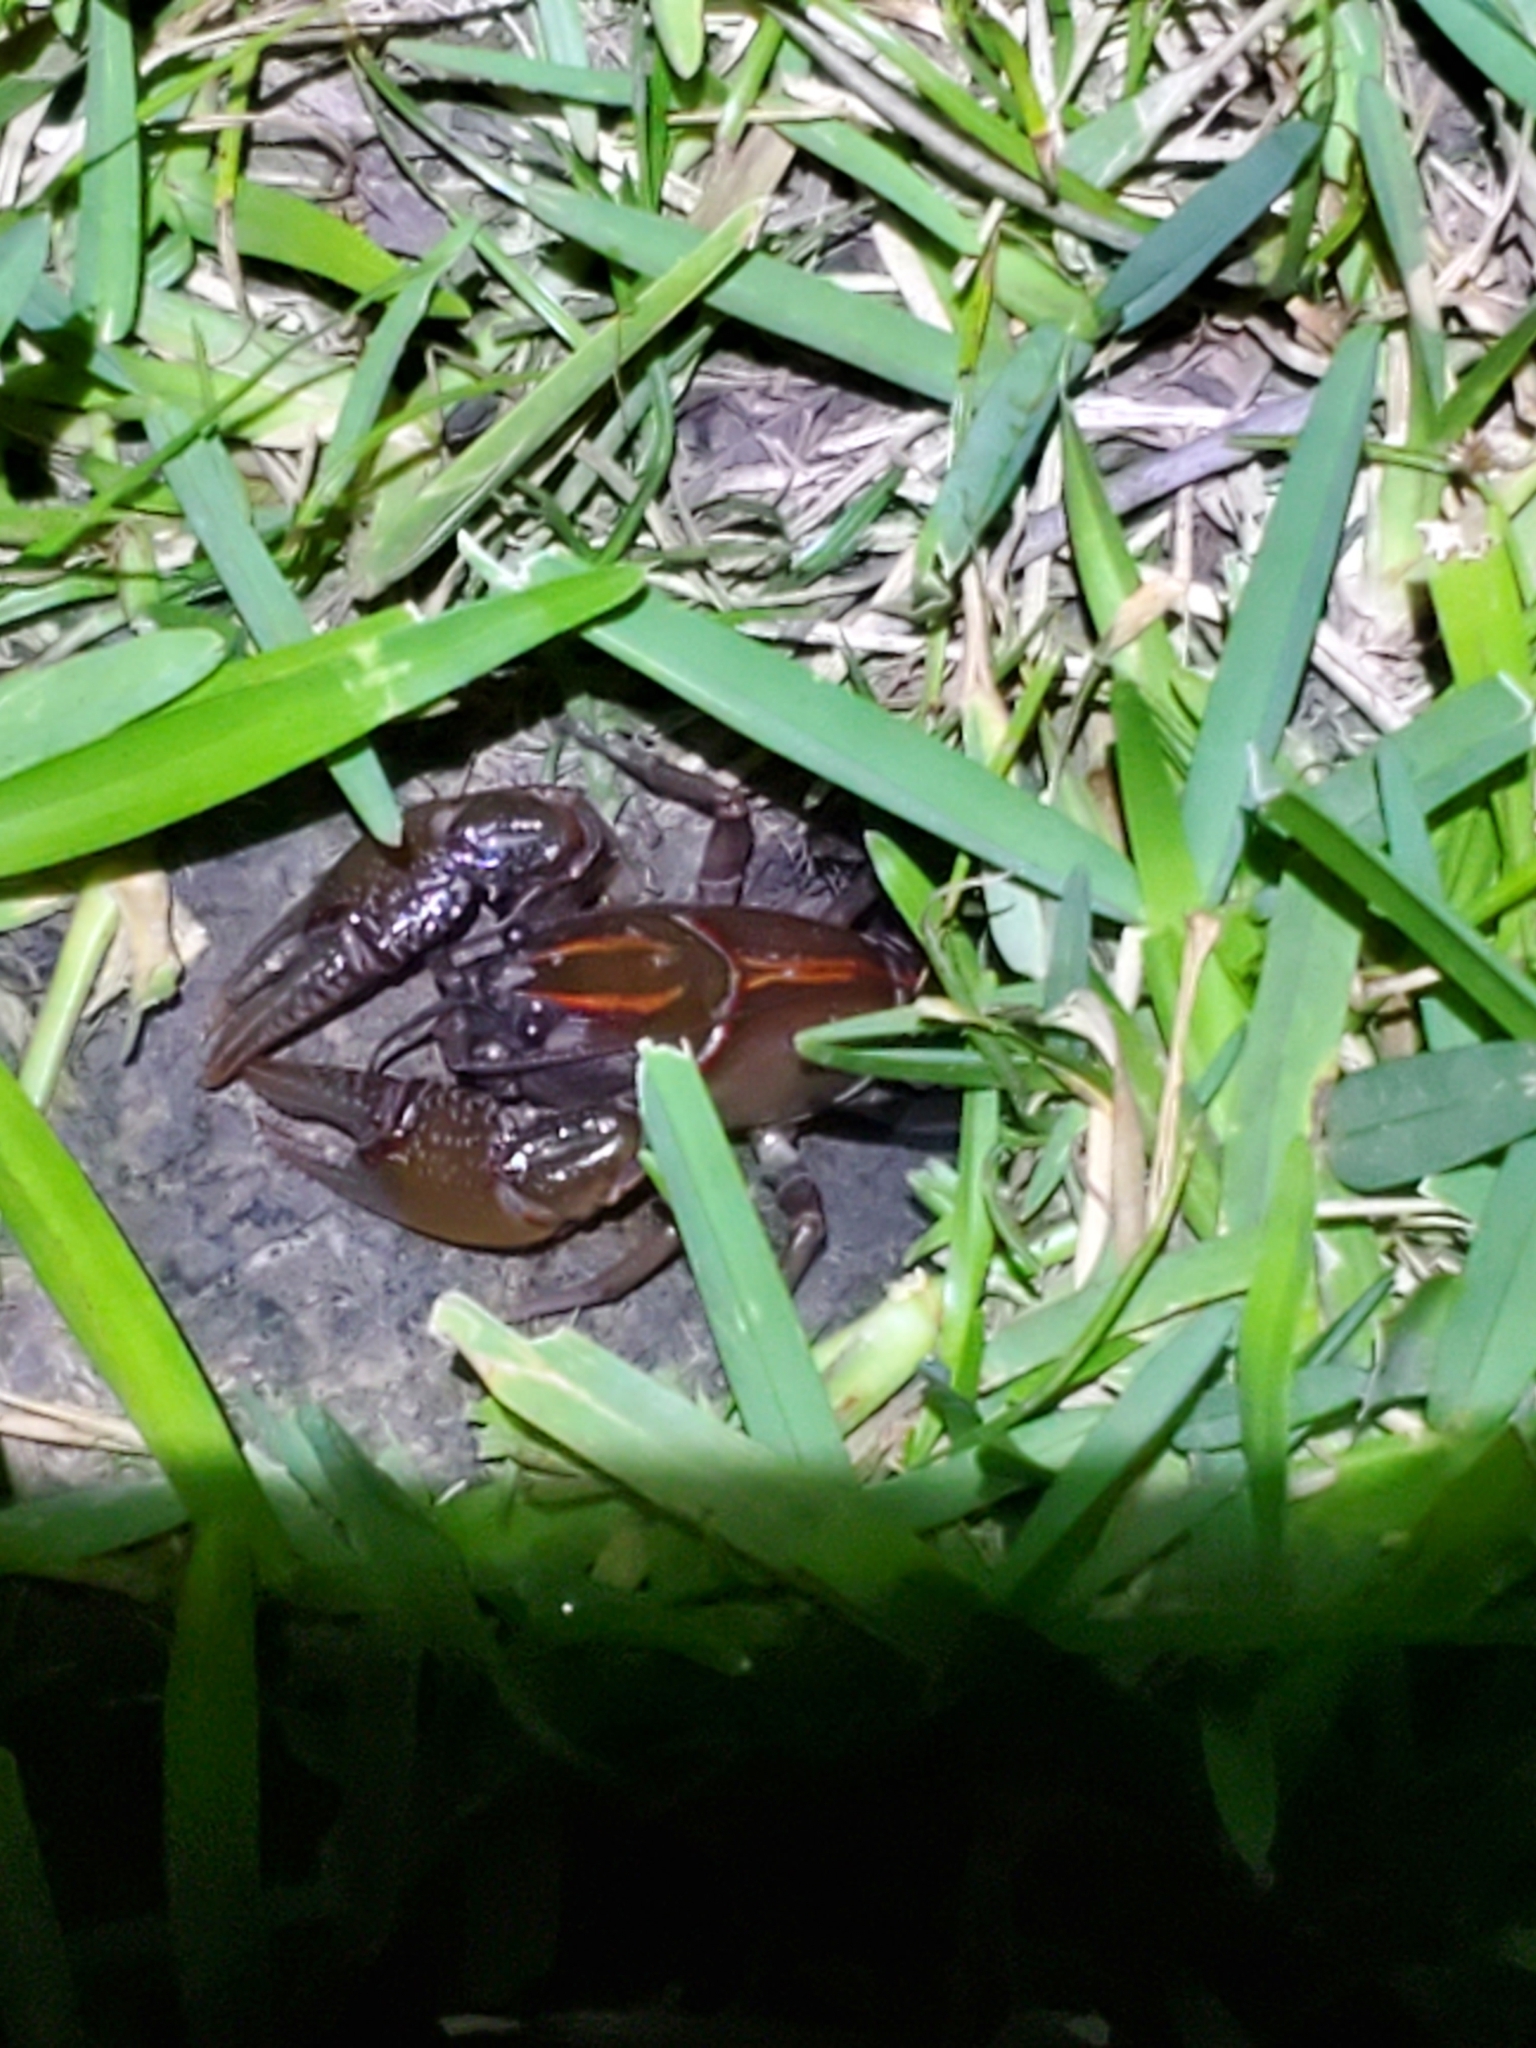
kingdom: Animalia
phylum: Arthropoda
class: Malacostraca
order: Decapoda
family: Cambaridae
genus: Lacunicambarus
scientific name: Lacunicambarus ludovicianus
